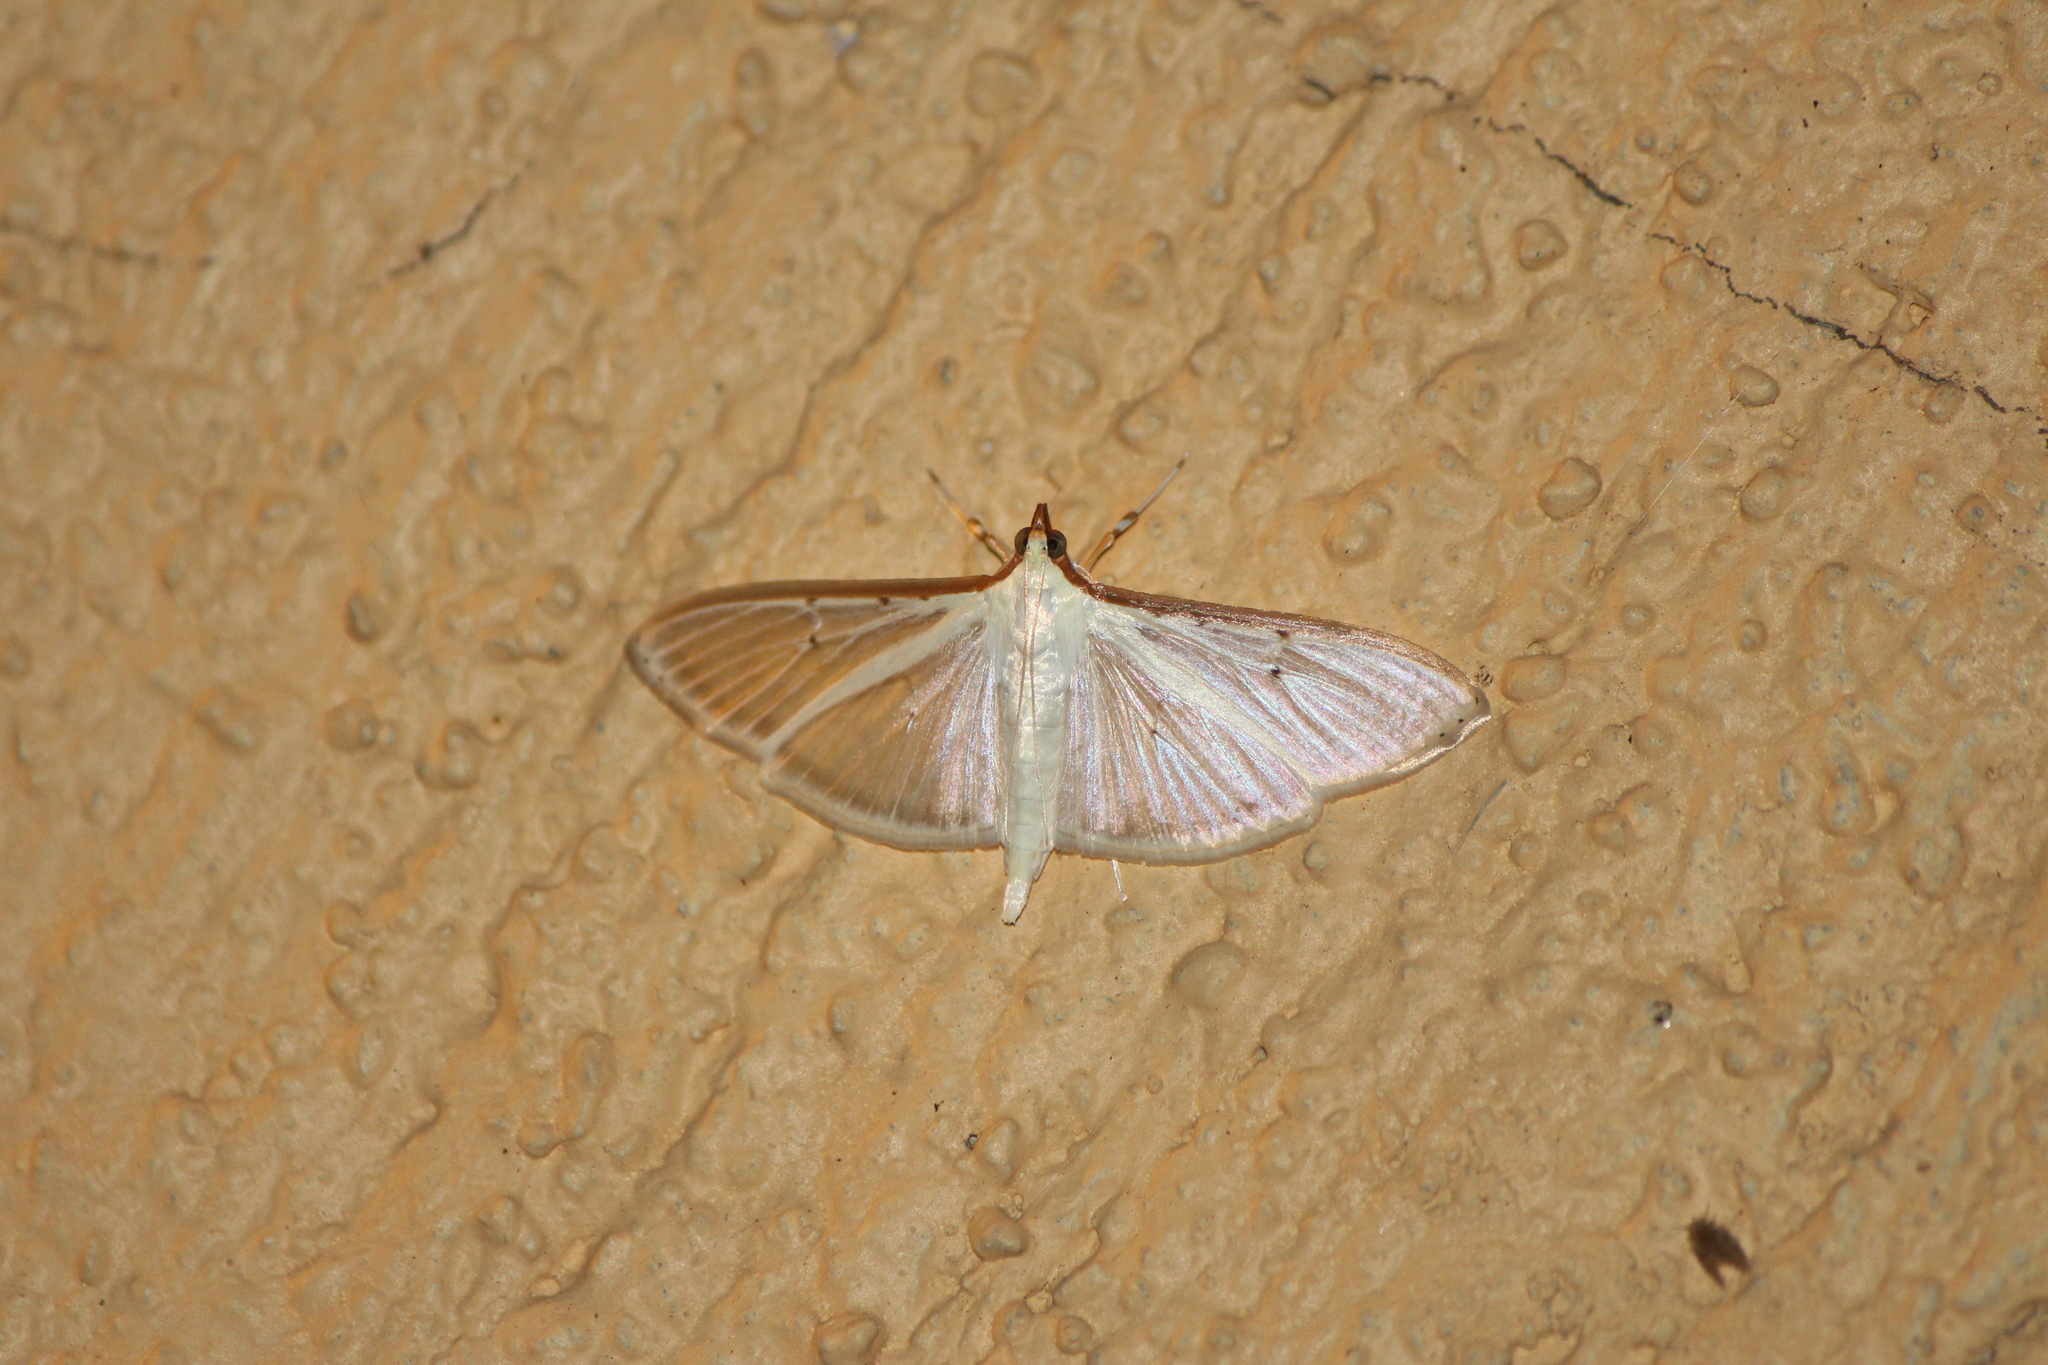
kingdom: Animalia
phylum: Arthropoda
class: Insecta
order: Lepidoptera
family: Crambidae
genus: Palpita
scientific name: Palpita quadristigmalis
